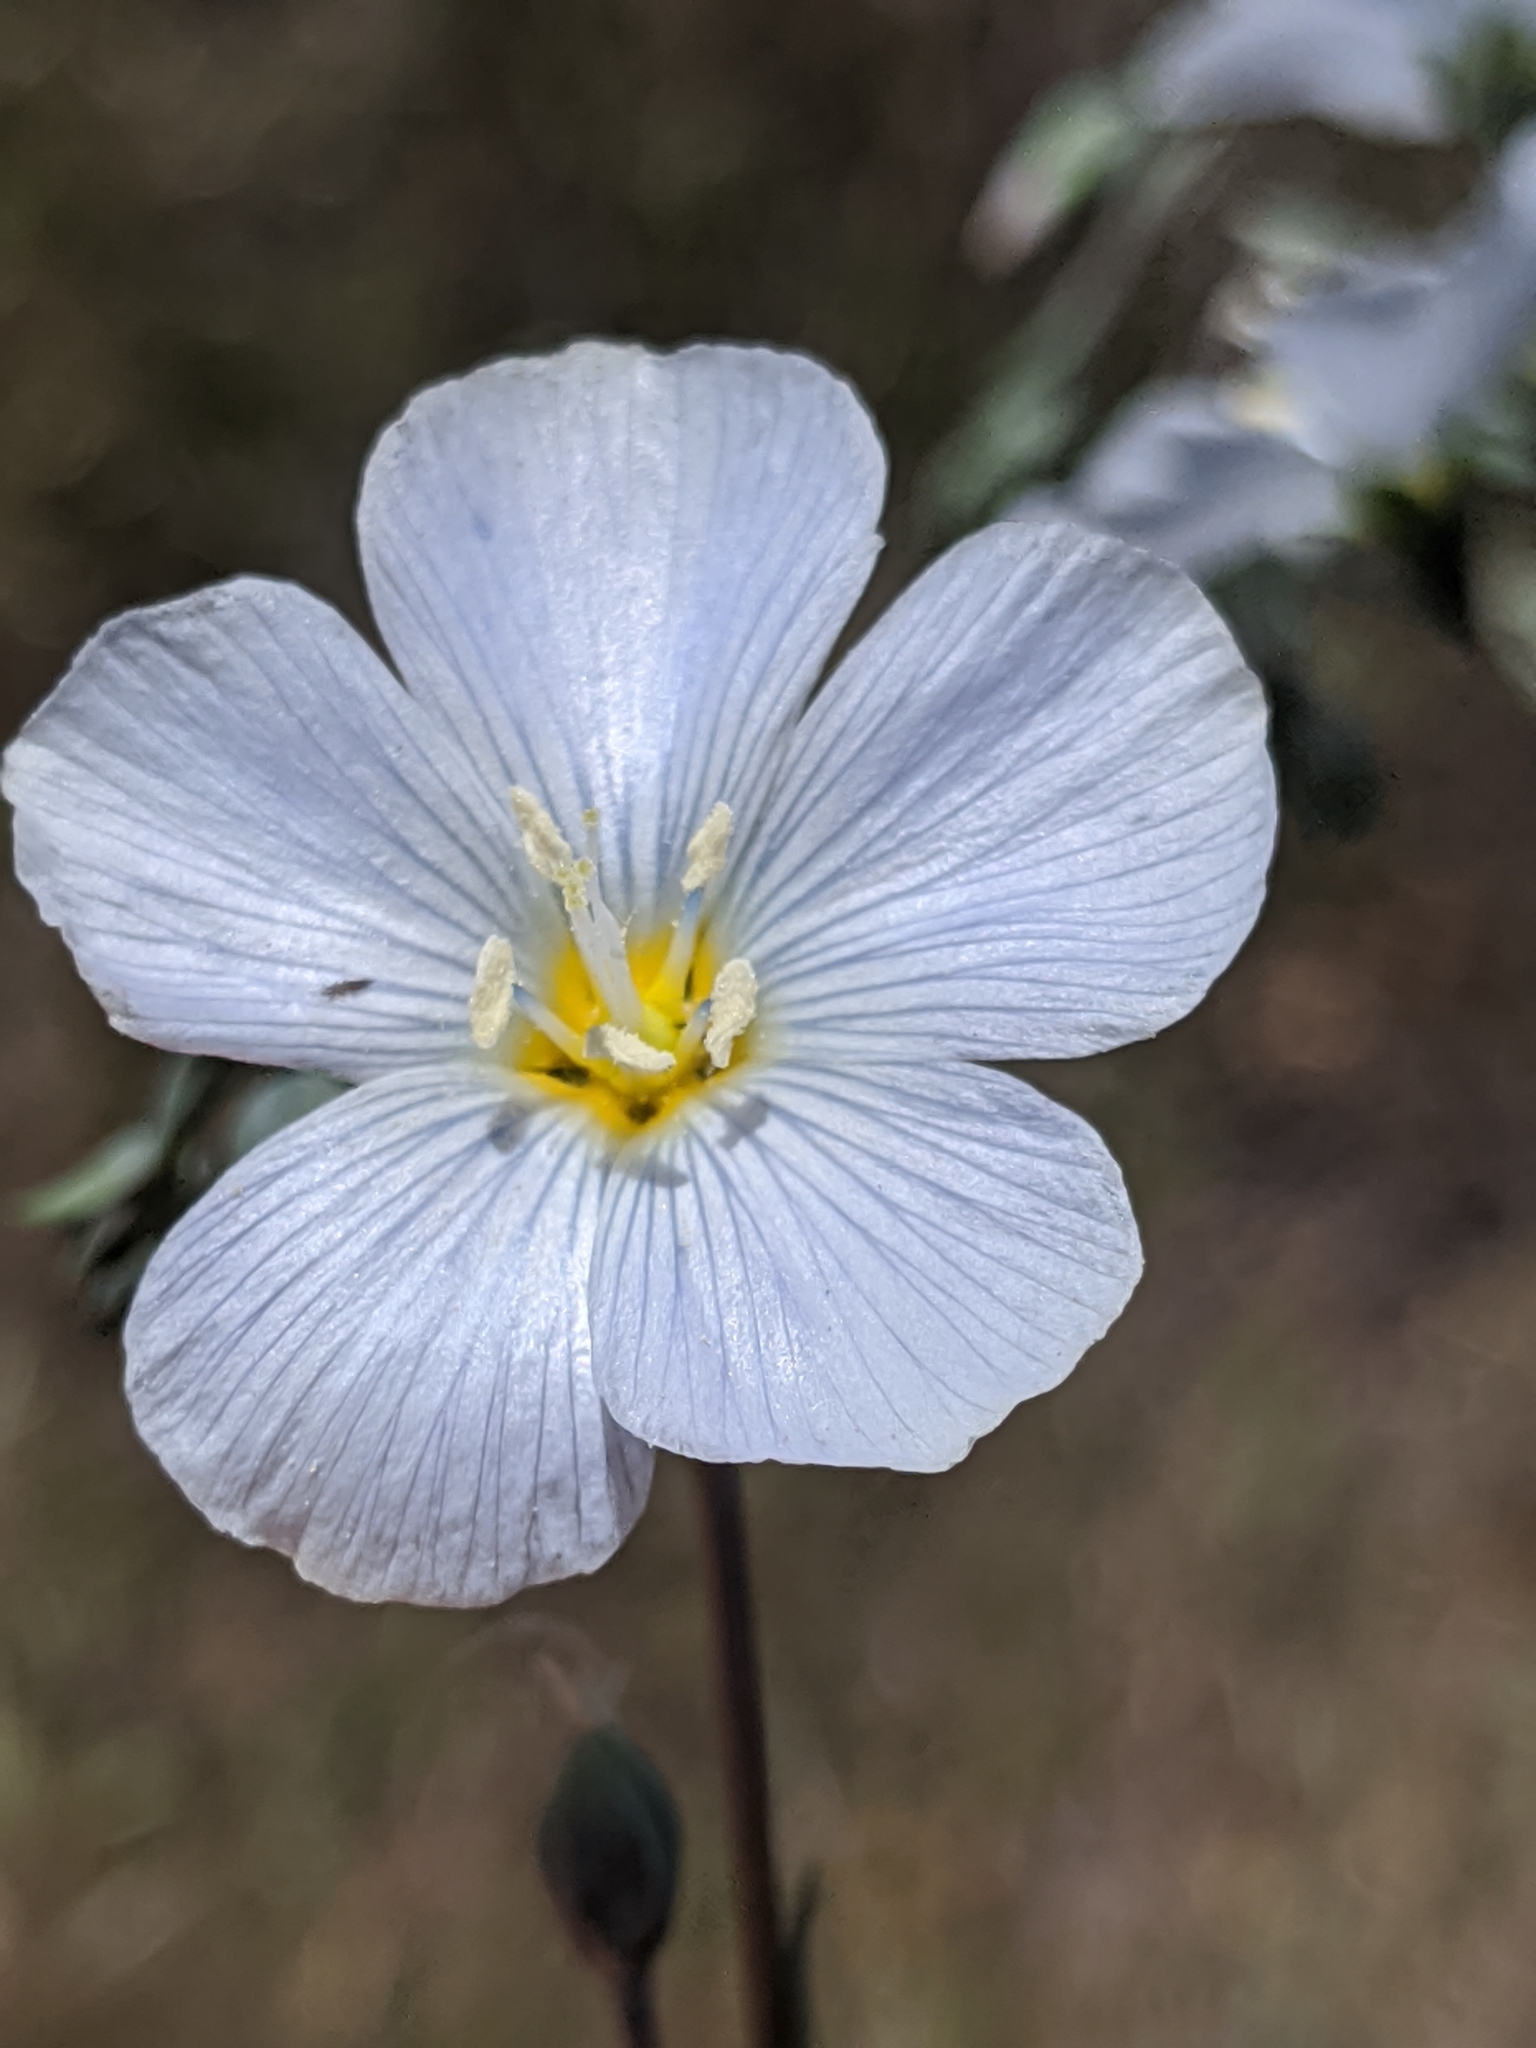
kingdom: Plantae
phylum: Tracheophyta
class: Magnoliopsida
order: Malpighiales
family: Linaceae
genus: Linum
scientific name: Linum lewisii
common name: Prairie flax
